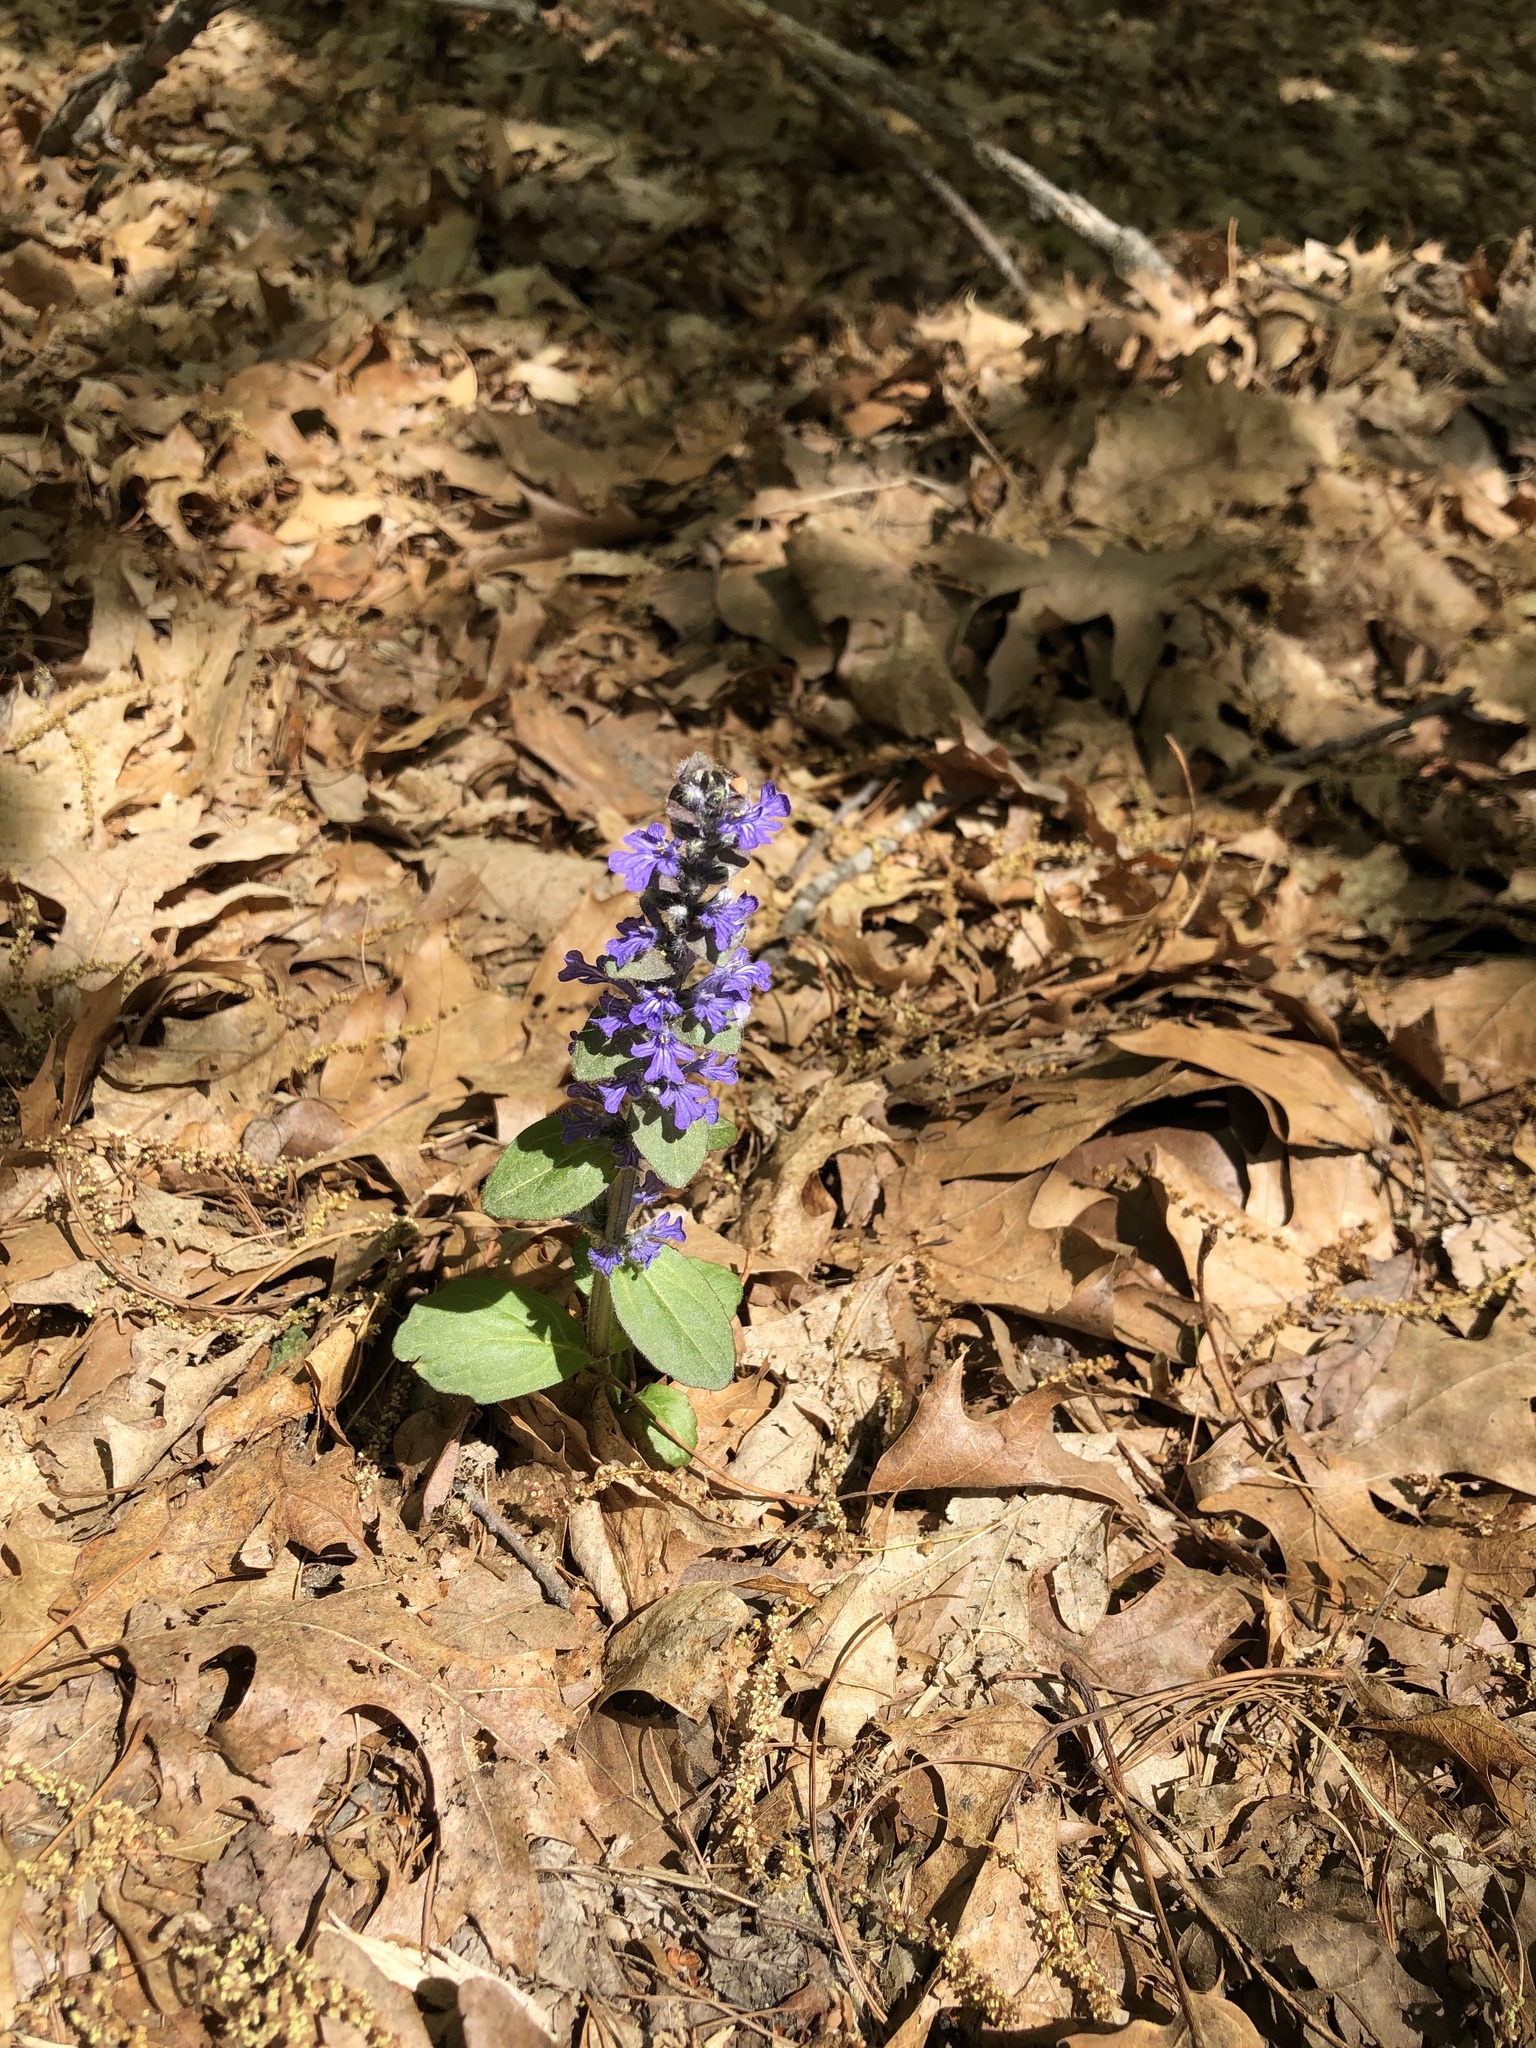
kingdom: Plantae
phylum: Tracheophyta
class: Magnoliopsida
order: Lamiales
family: Lamiaceae
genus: Ajuga
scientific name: Ajuga reptans
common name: Bugle
